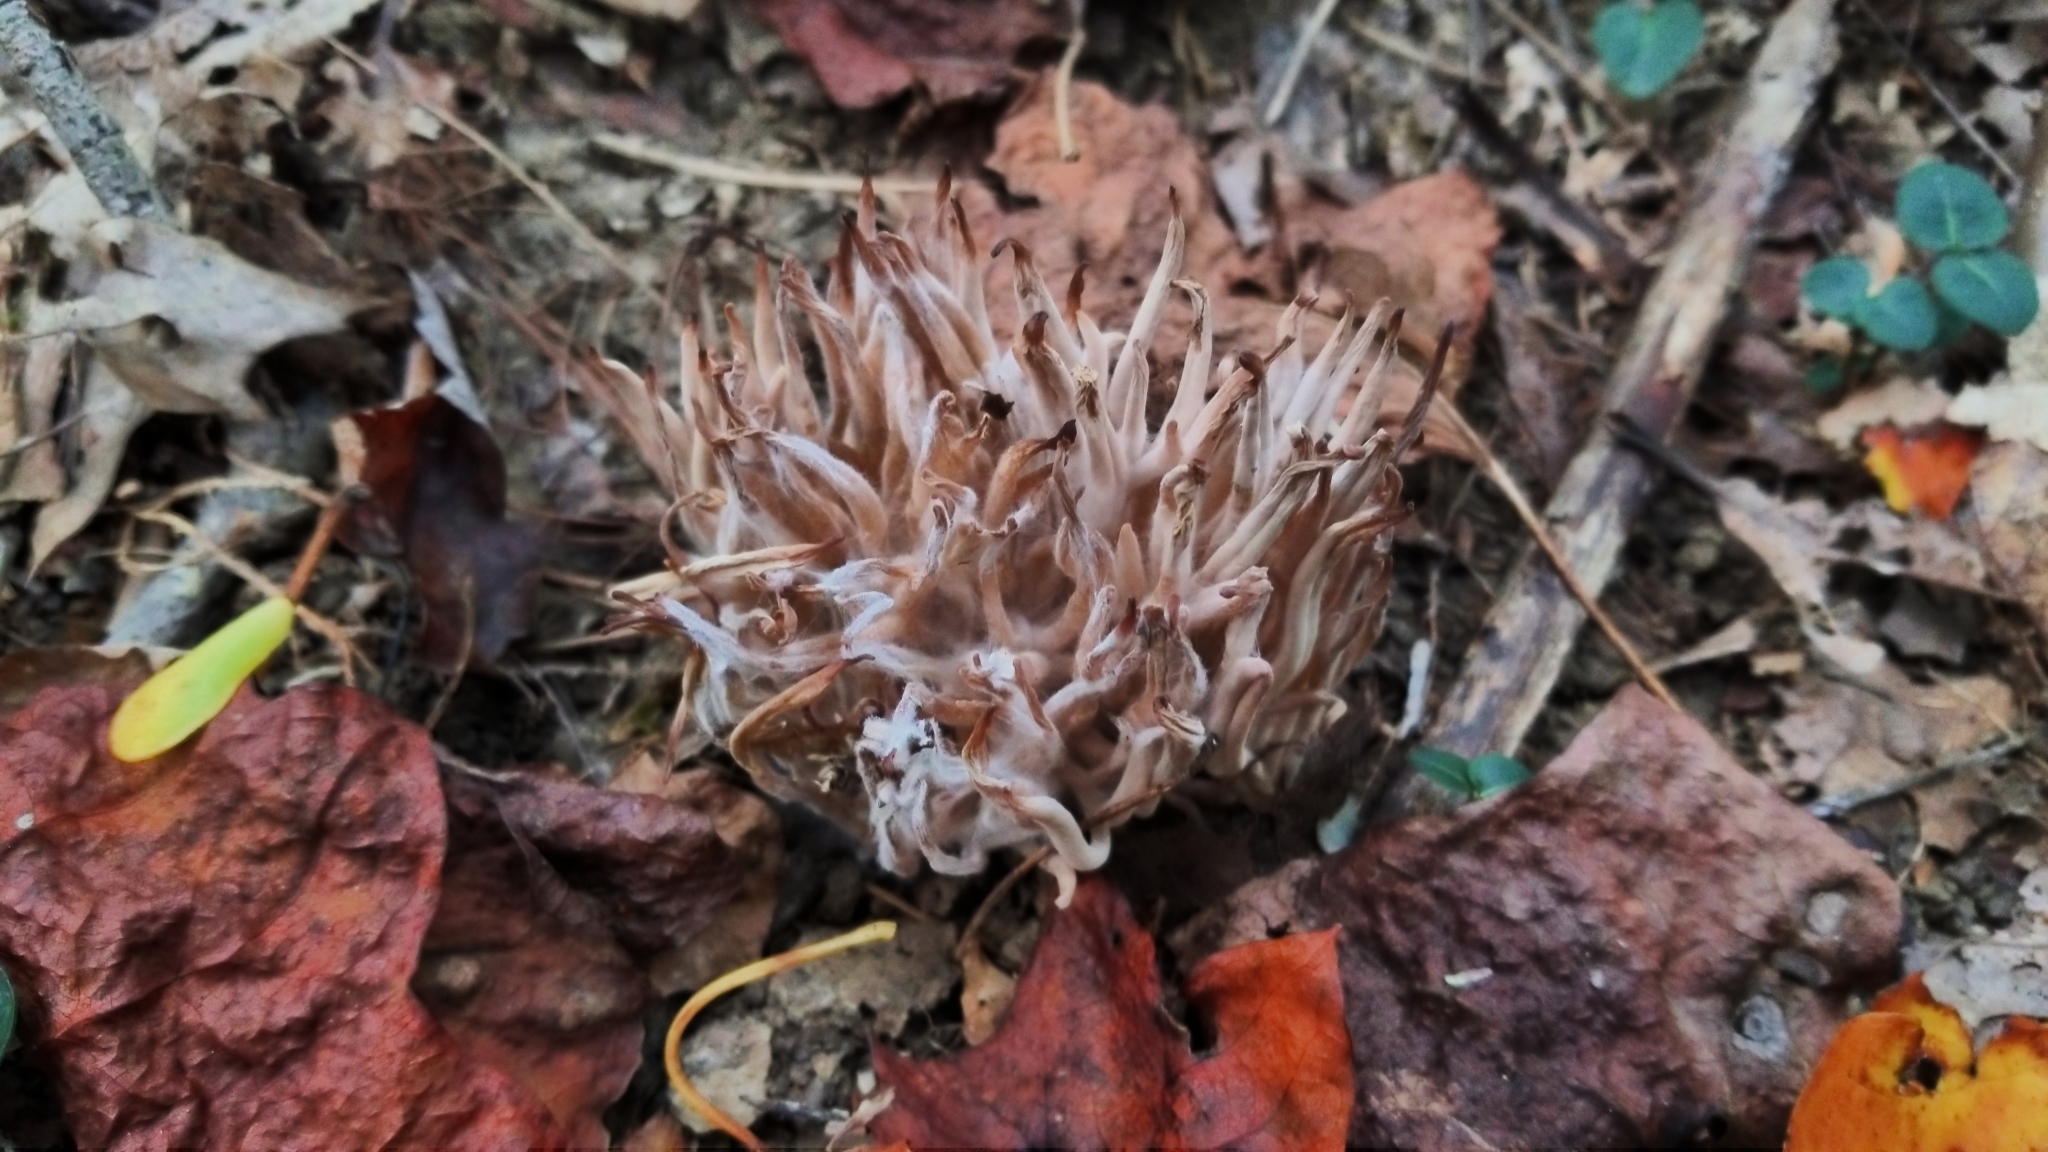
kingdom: Fungi
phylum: Basidiomycota
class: Agaricomycetes
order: Agaricales
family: Clavariaceae
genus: Clavaria
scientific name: Clavaria fragilis
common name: White spindles
